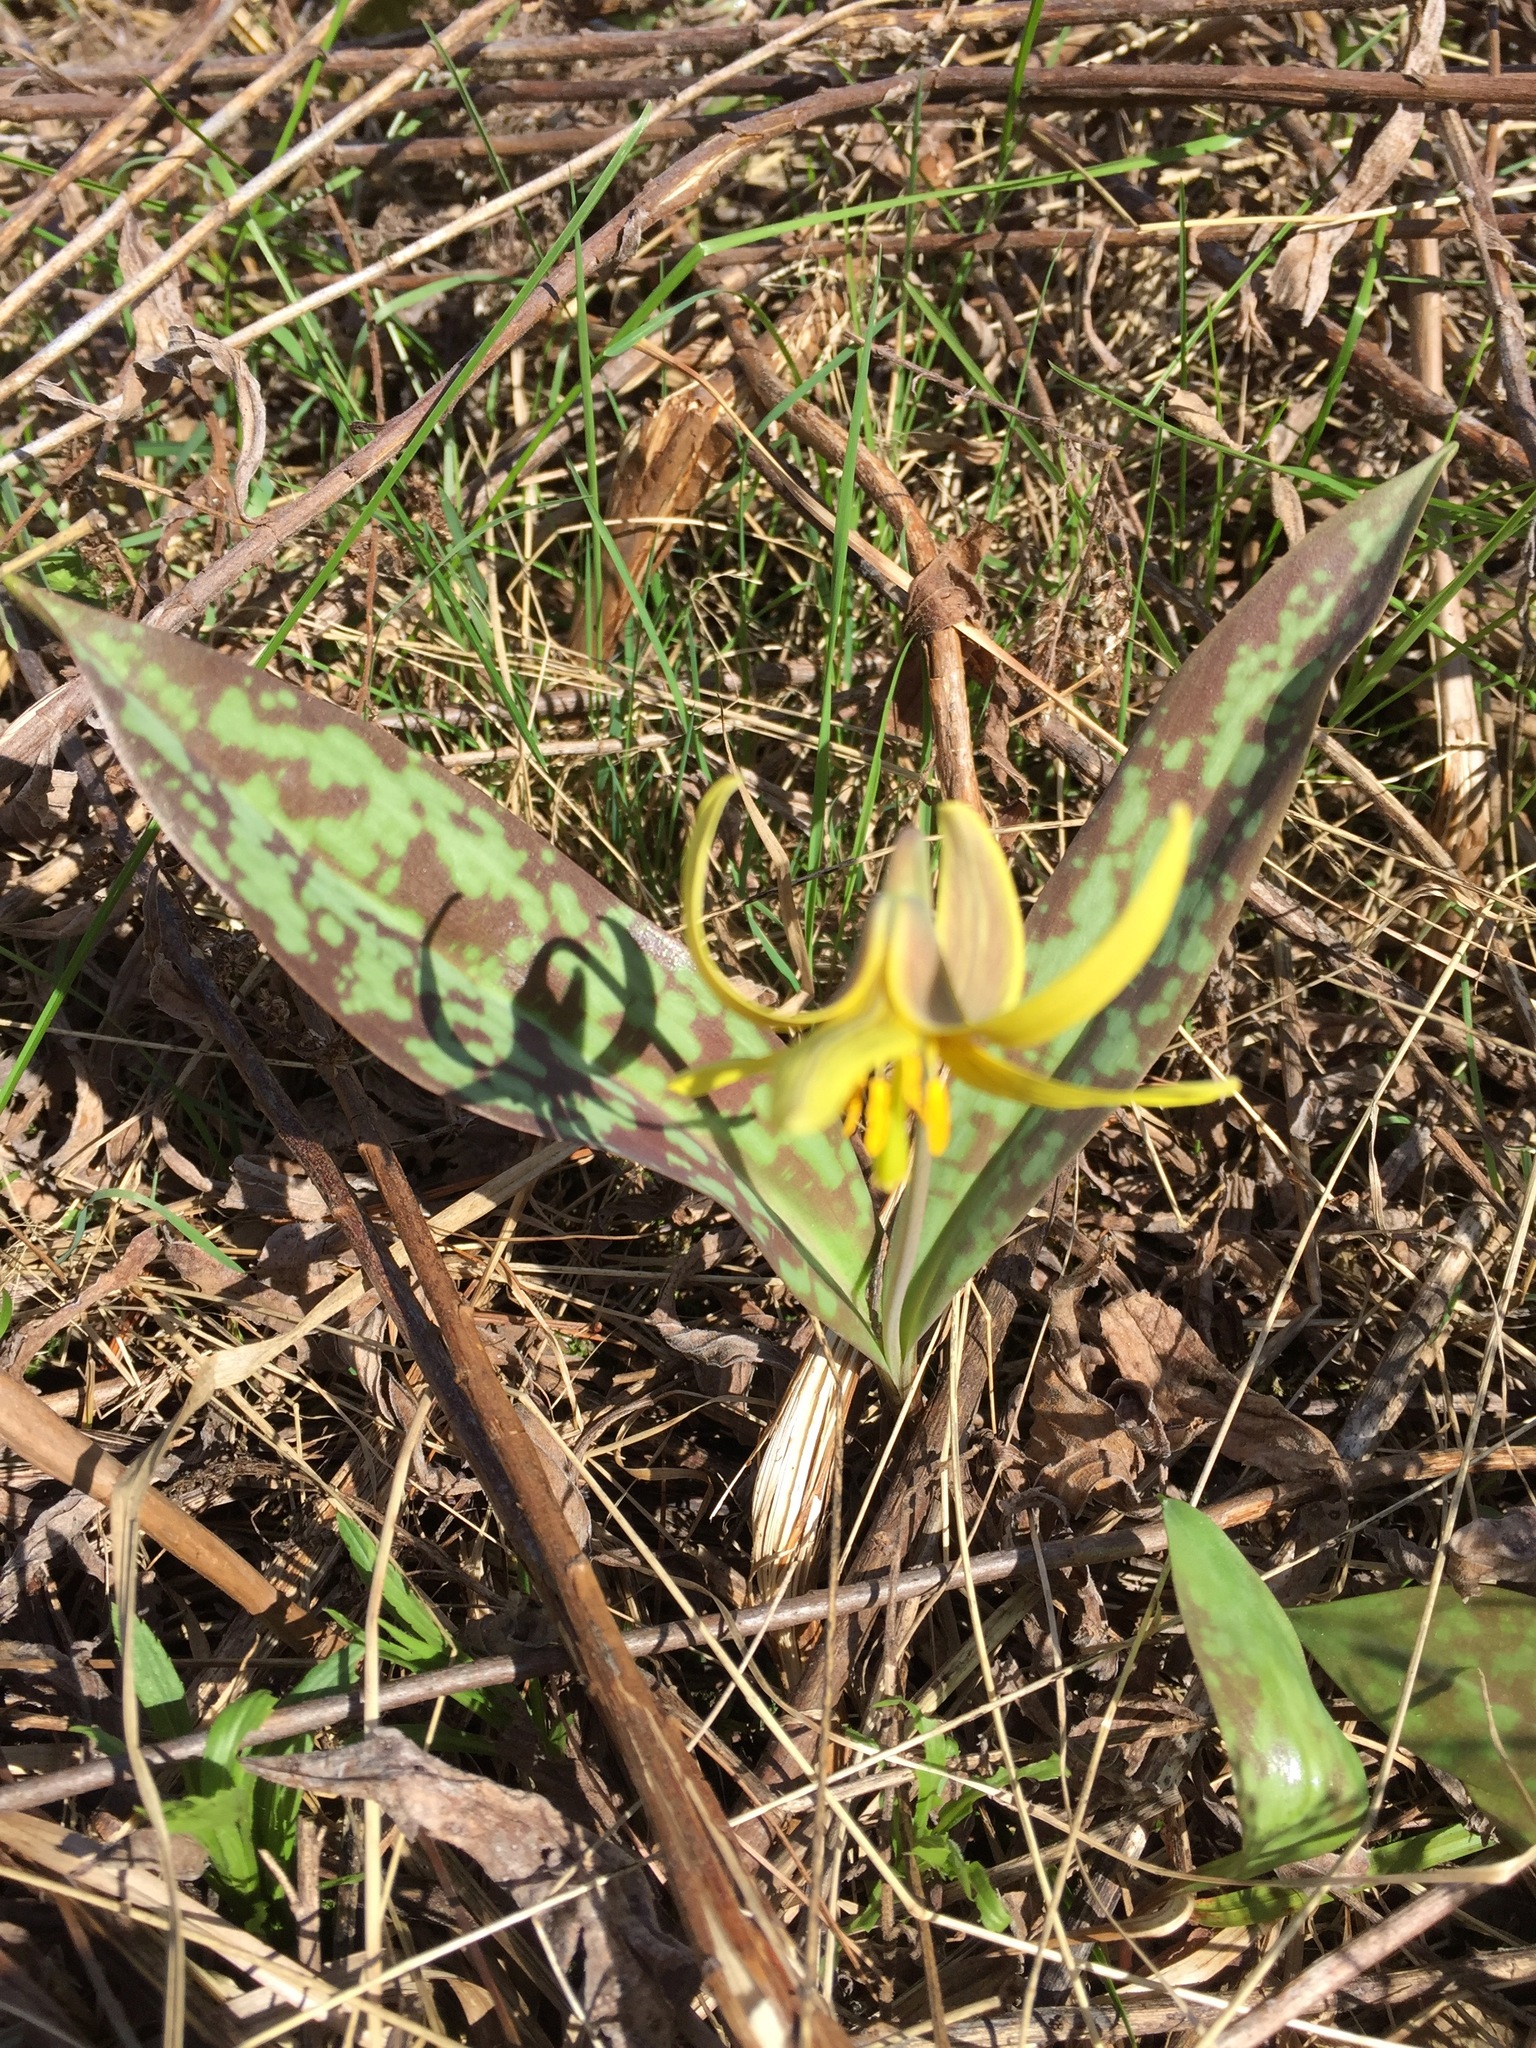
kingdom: Plantae
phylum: Tracheophyta
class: Liliopsida
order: Liliales
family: Liliaceae
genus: Erythronium
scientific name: Erythronium americanum
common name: Yellow adder's-tongue
